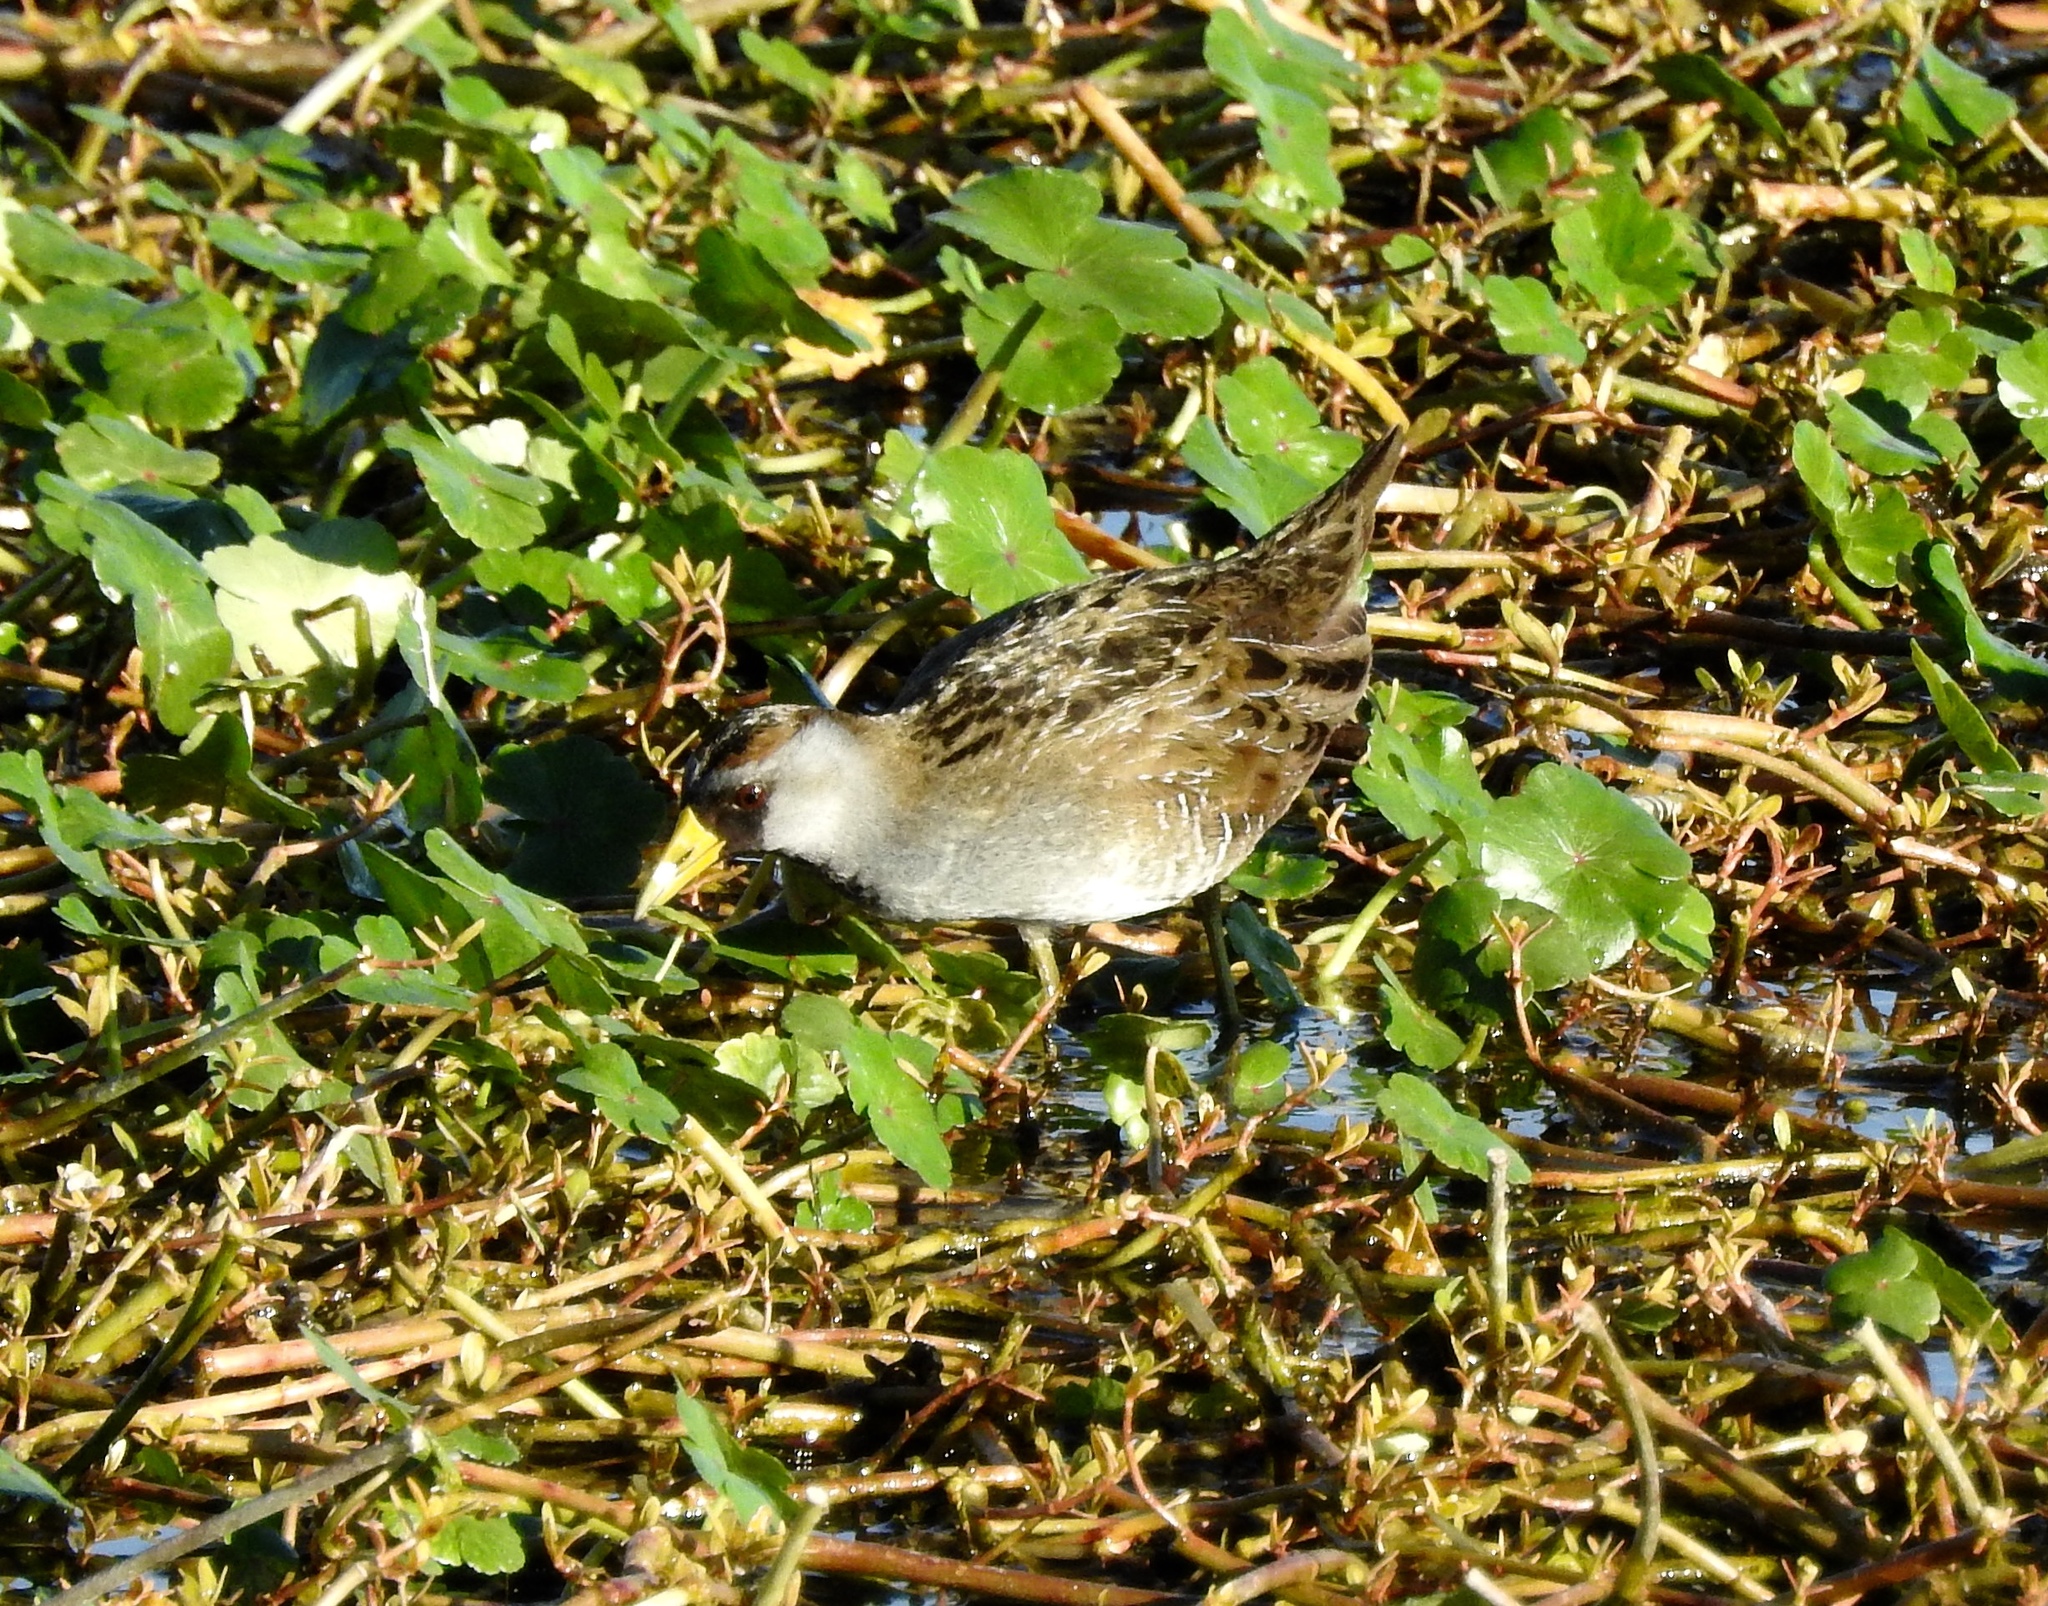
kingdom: Animalia
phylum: Chordata
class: Aves
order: Gruiformes
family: Rallidae
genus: Porzana
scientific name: Porzana carolina
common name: Sora
